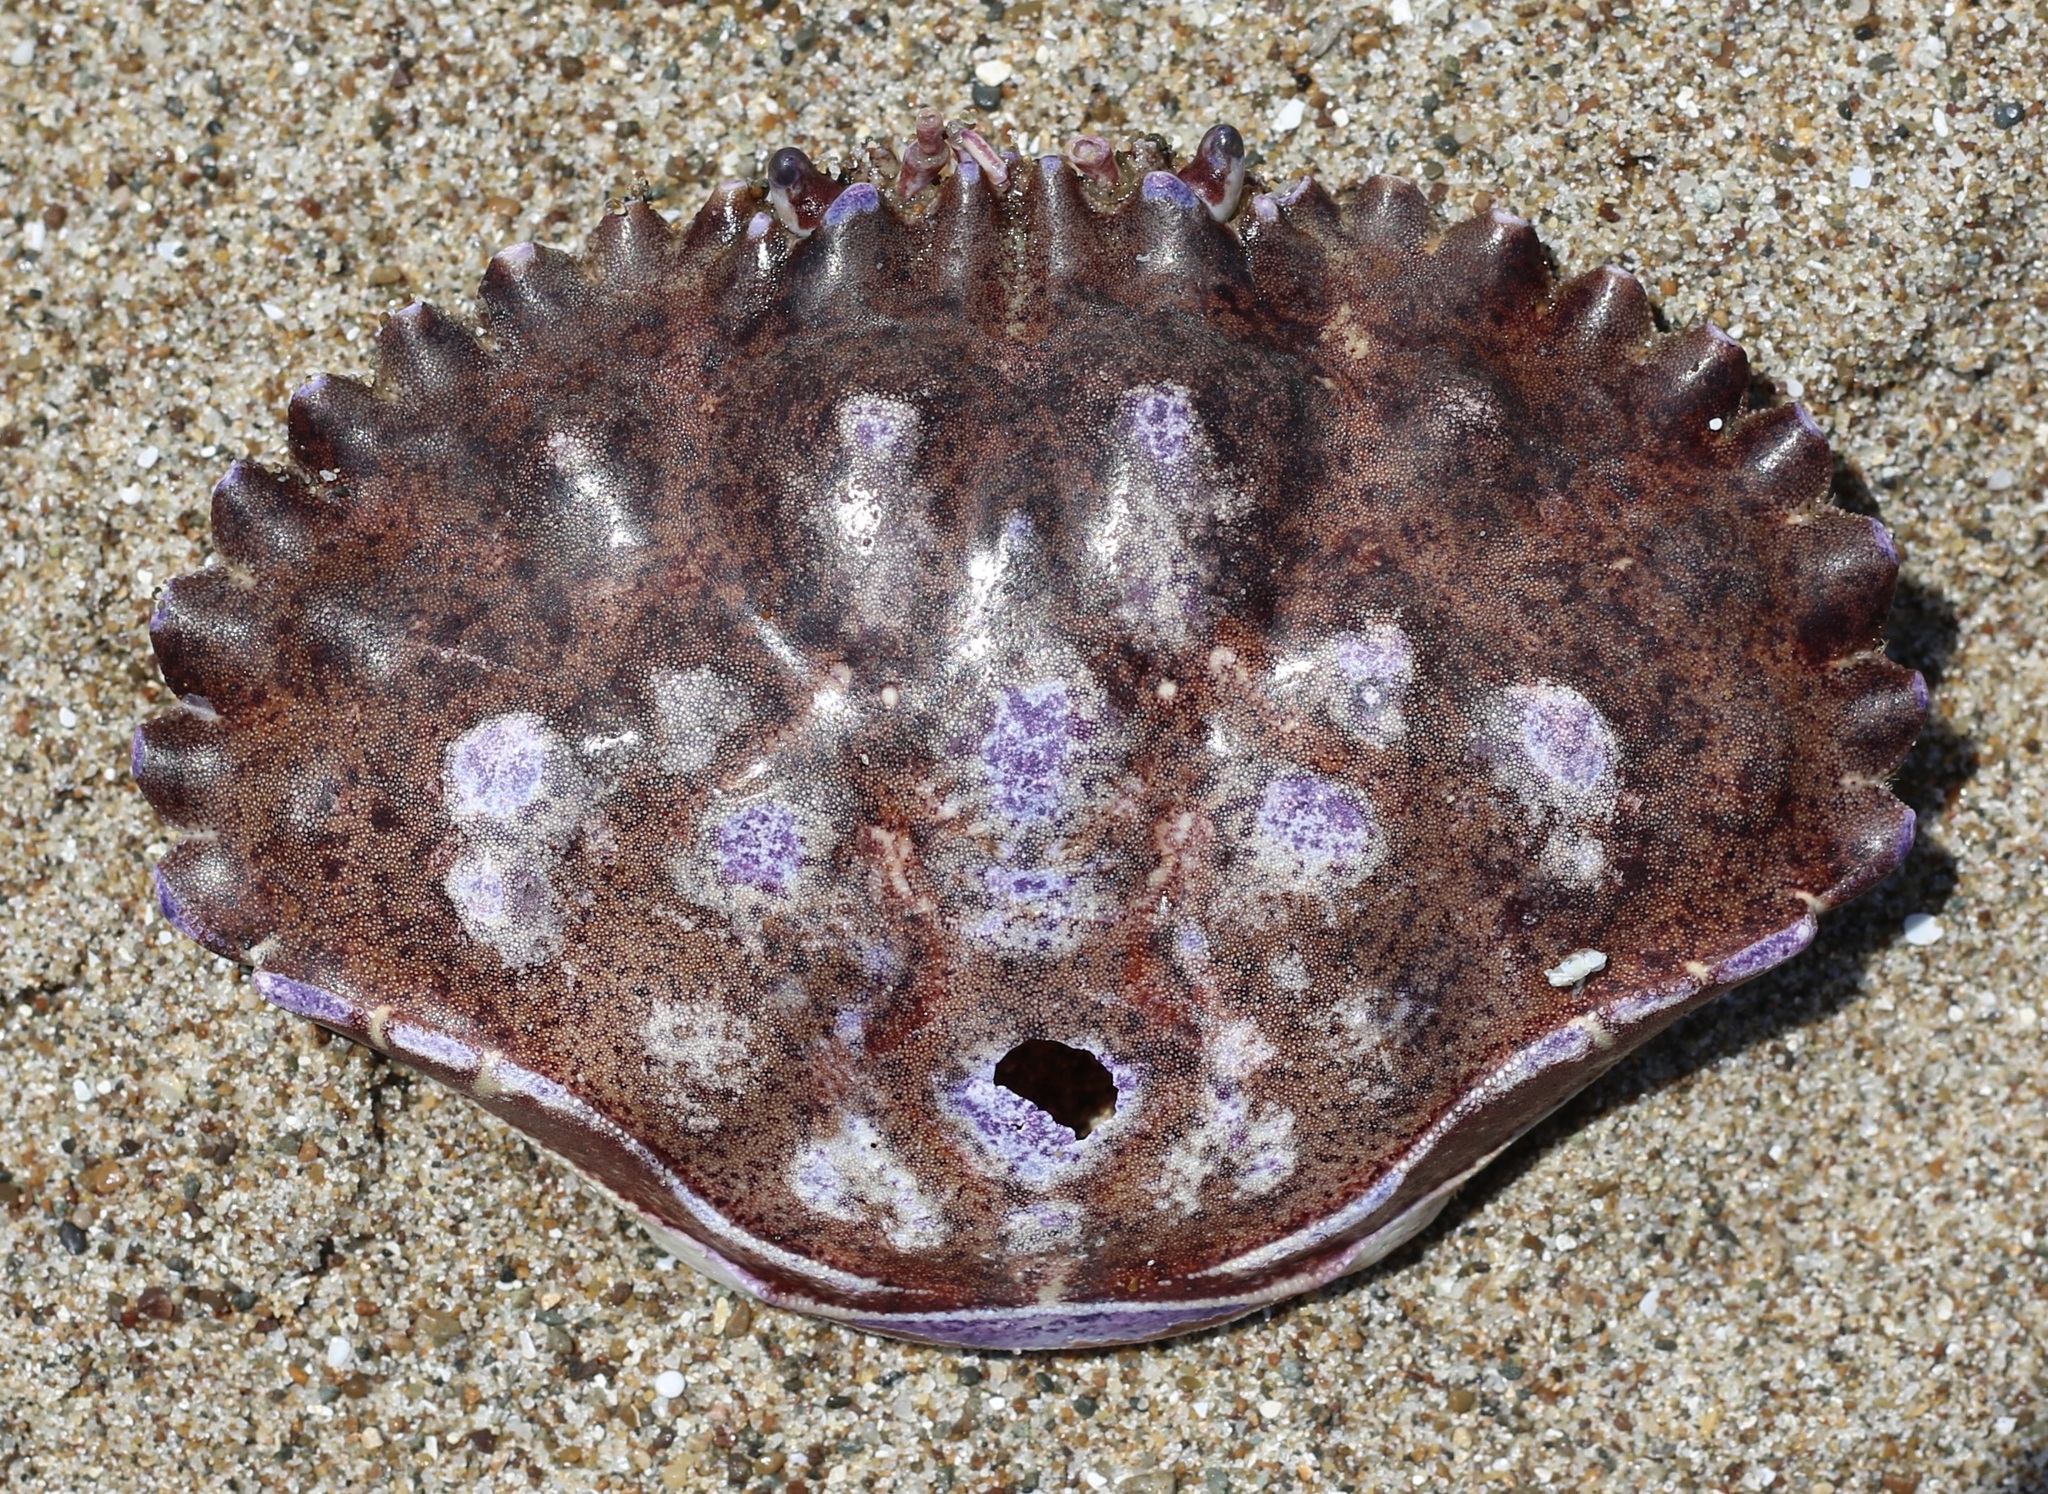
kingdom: Animalia
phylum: Arthropoda
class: Malacostraca
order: Decapoda
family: Cancridae
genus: Romaleon
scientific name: Romaleon antennarium
